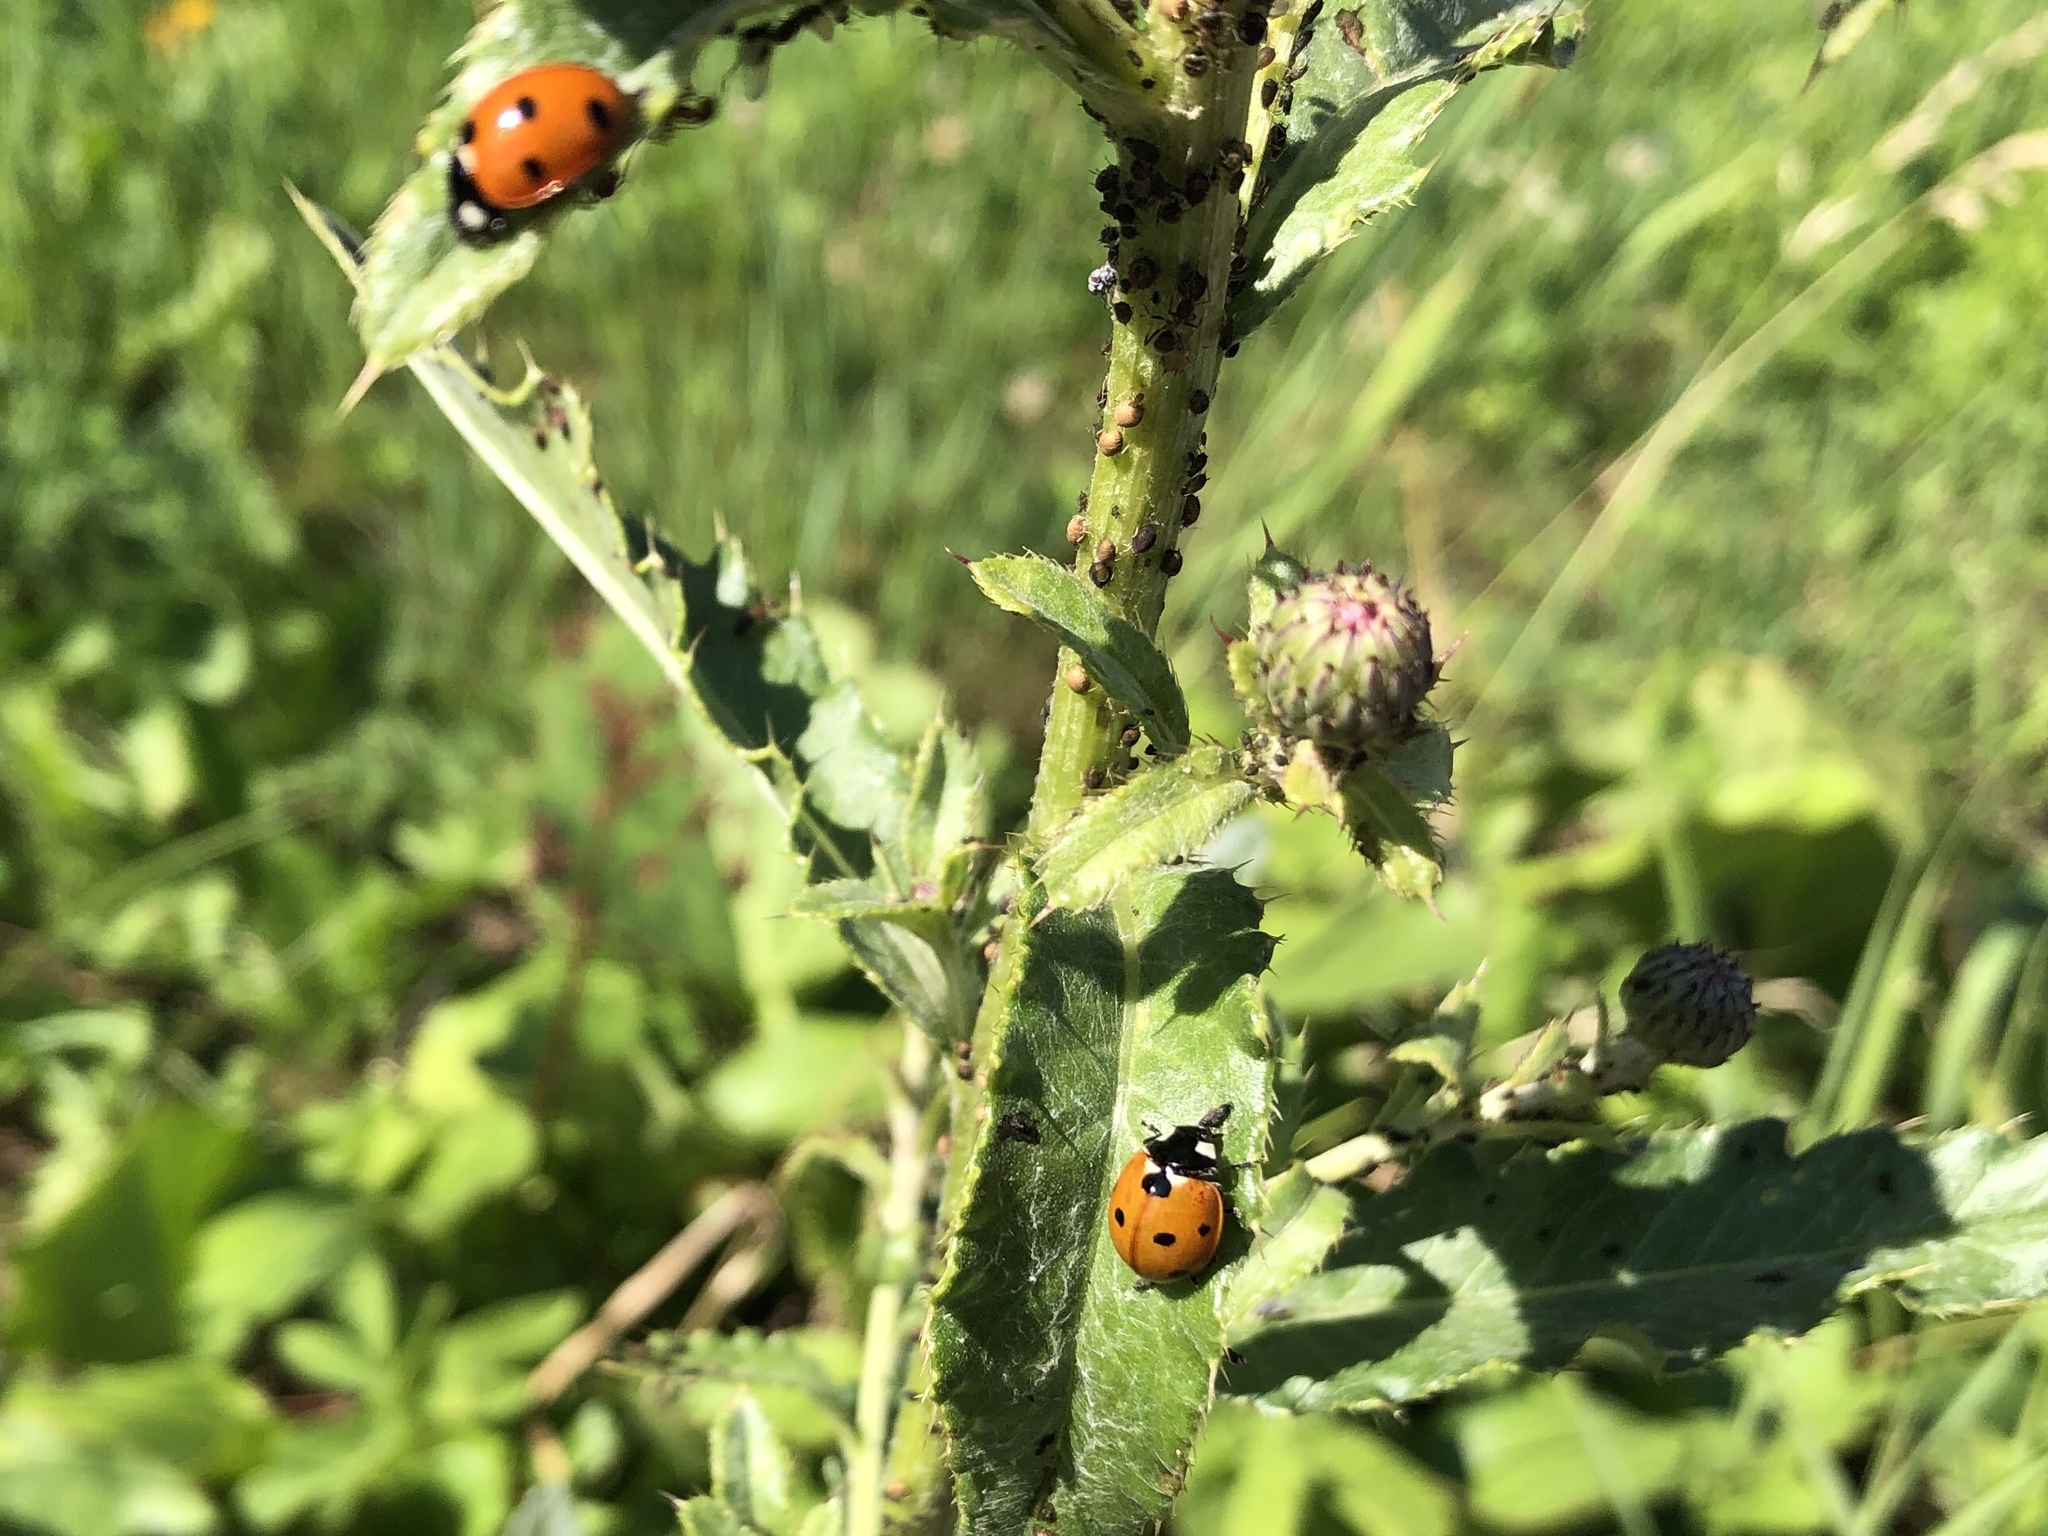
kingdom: Animalia
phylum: Arthropoda
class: Insecta
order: Coleoptera
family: Coccinellidae
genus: Coccinella
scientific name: Coccinella septempunctata
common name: Sevenspotted lady beetle
